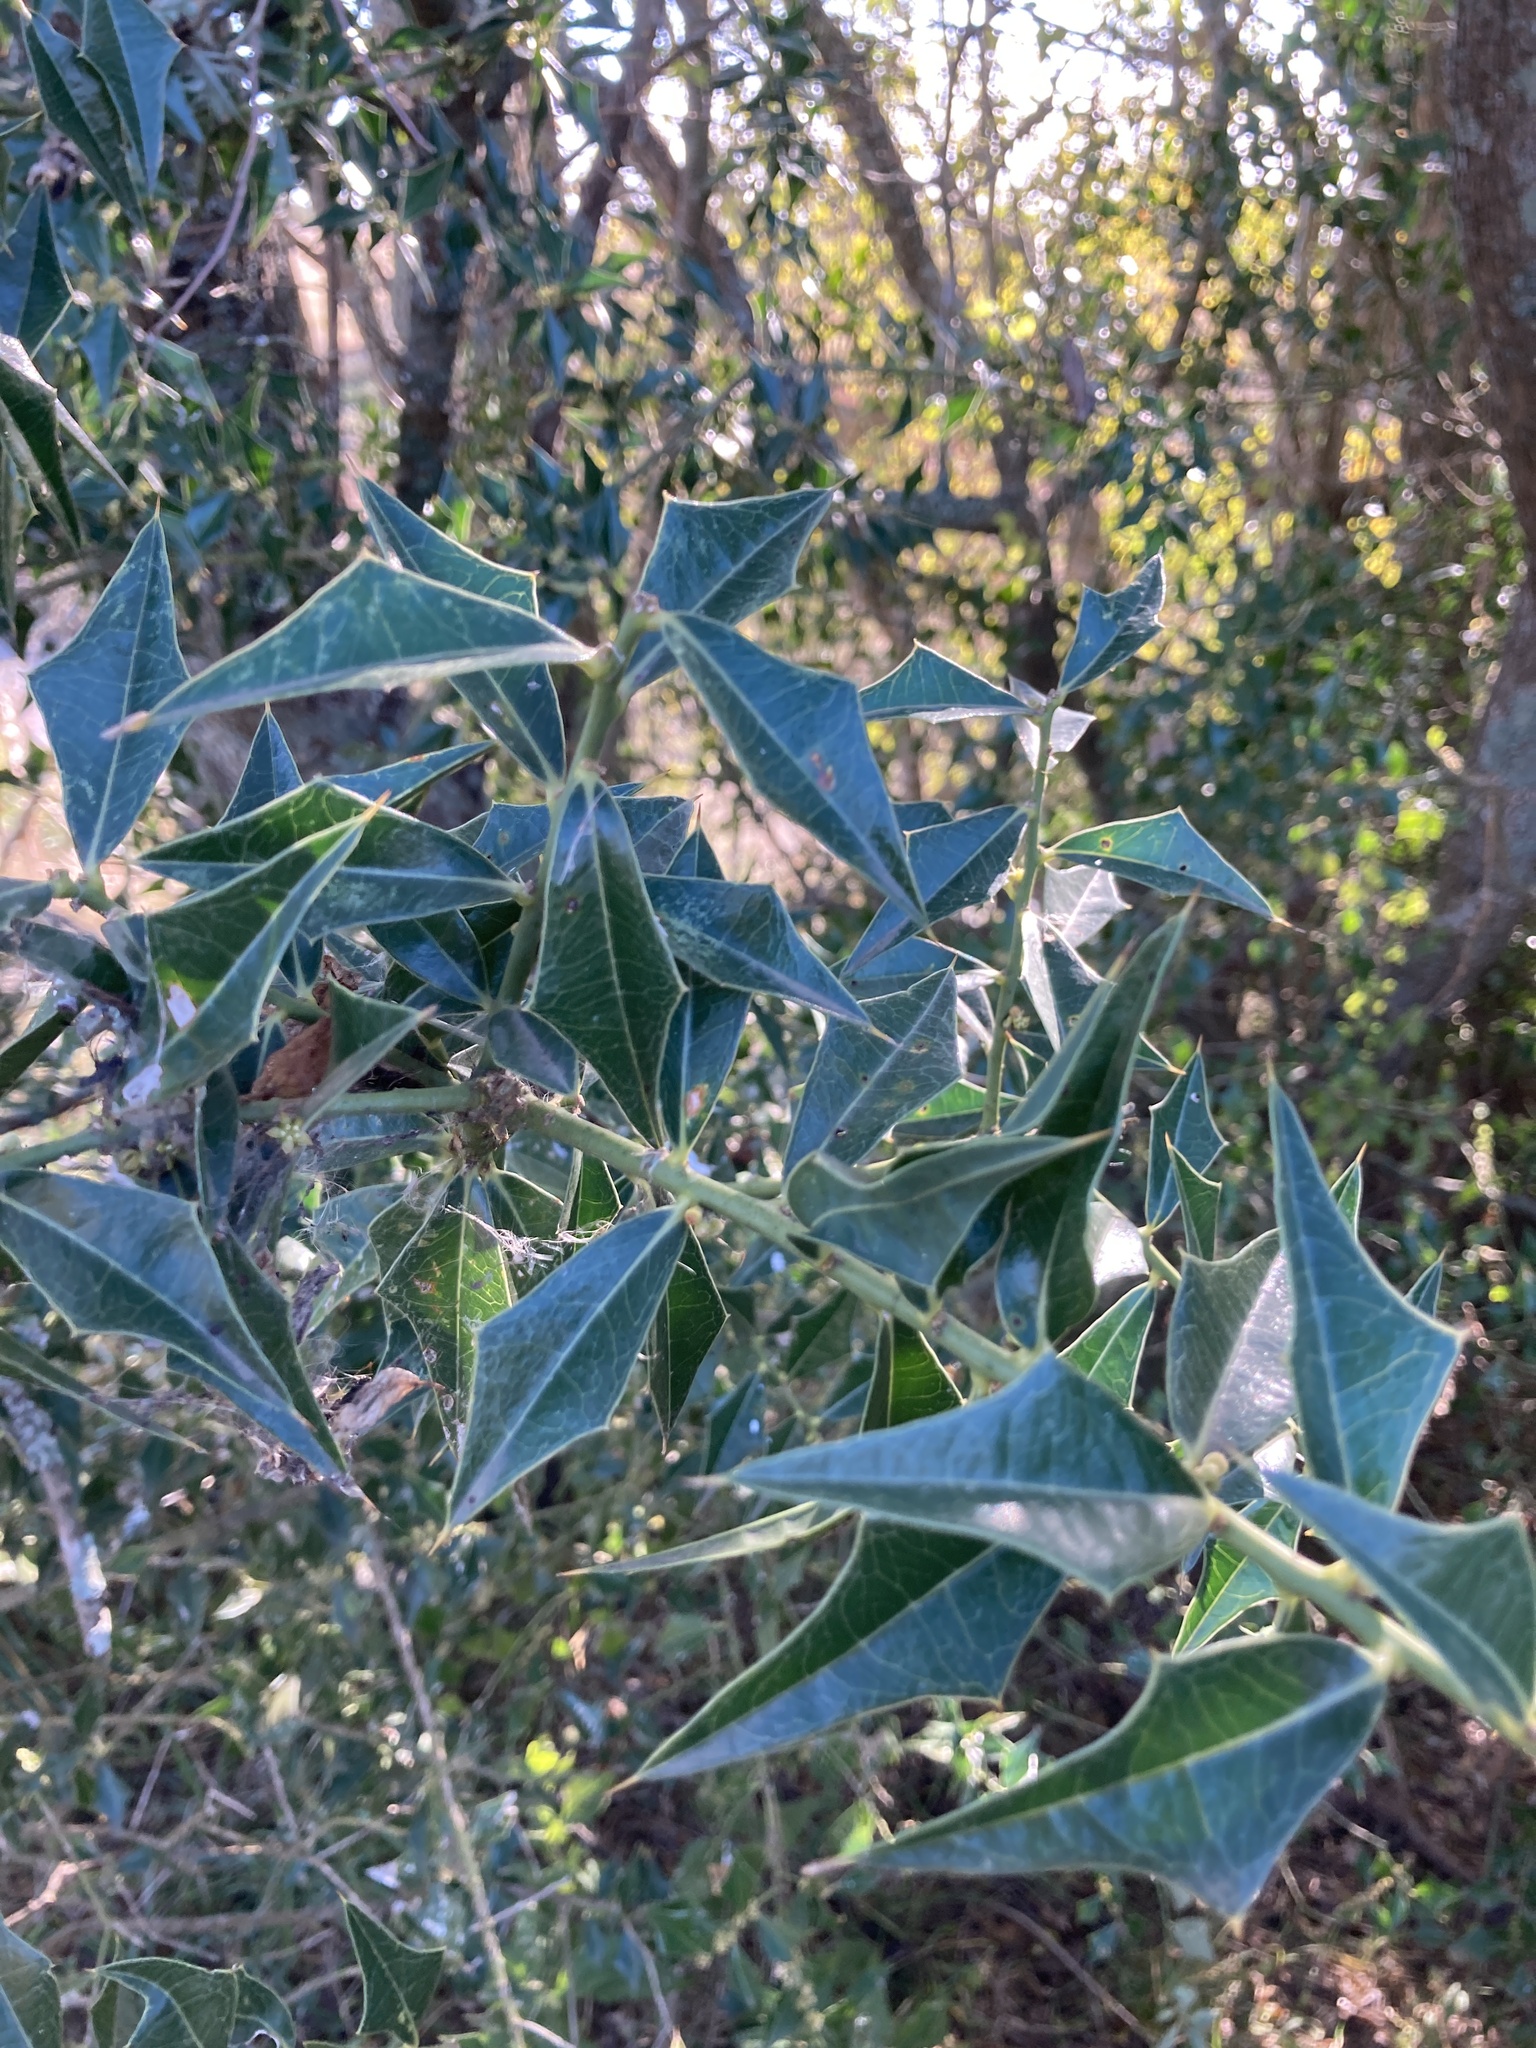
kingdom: Plantae
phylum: Tracheophyta
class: Magnoliopsida
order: Santalales
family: Cervantesiaceae
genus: Jodina
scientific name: Jodina rhombifolia
